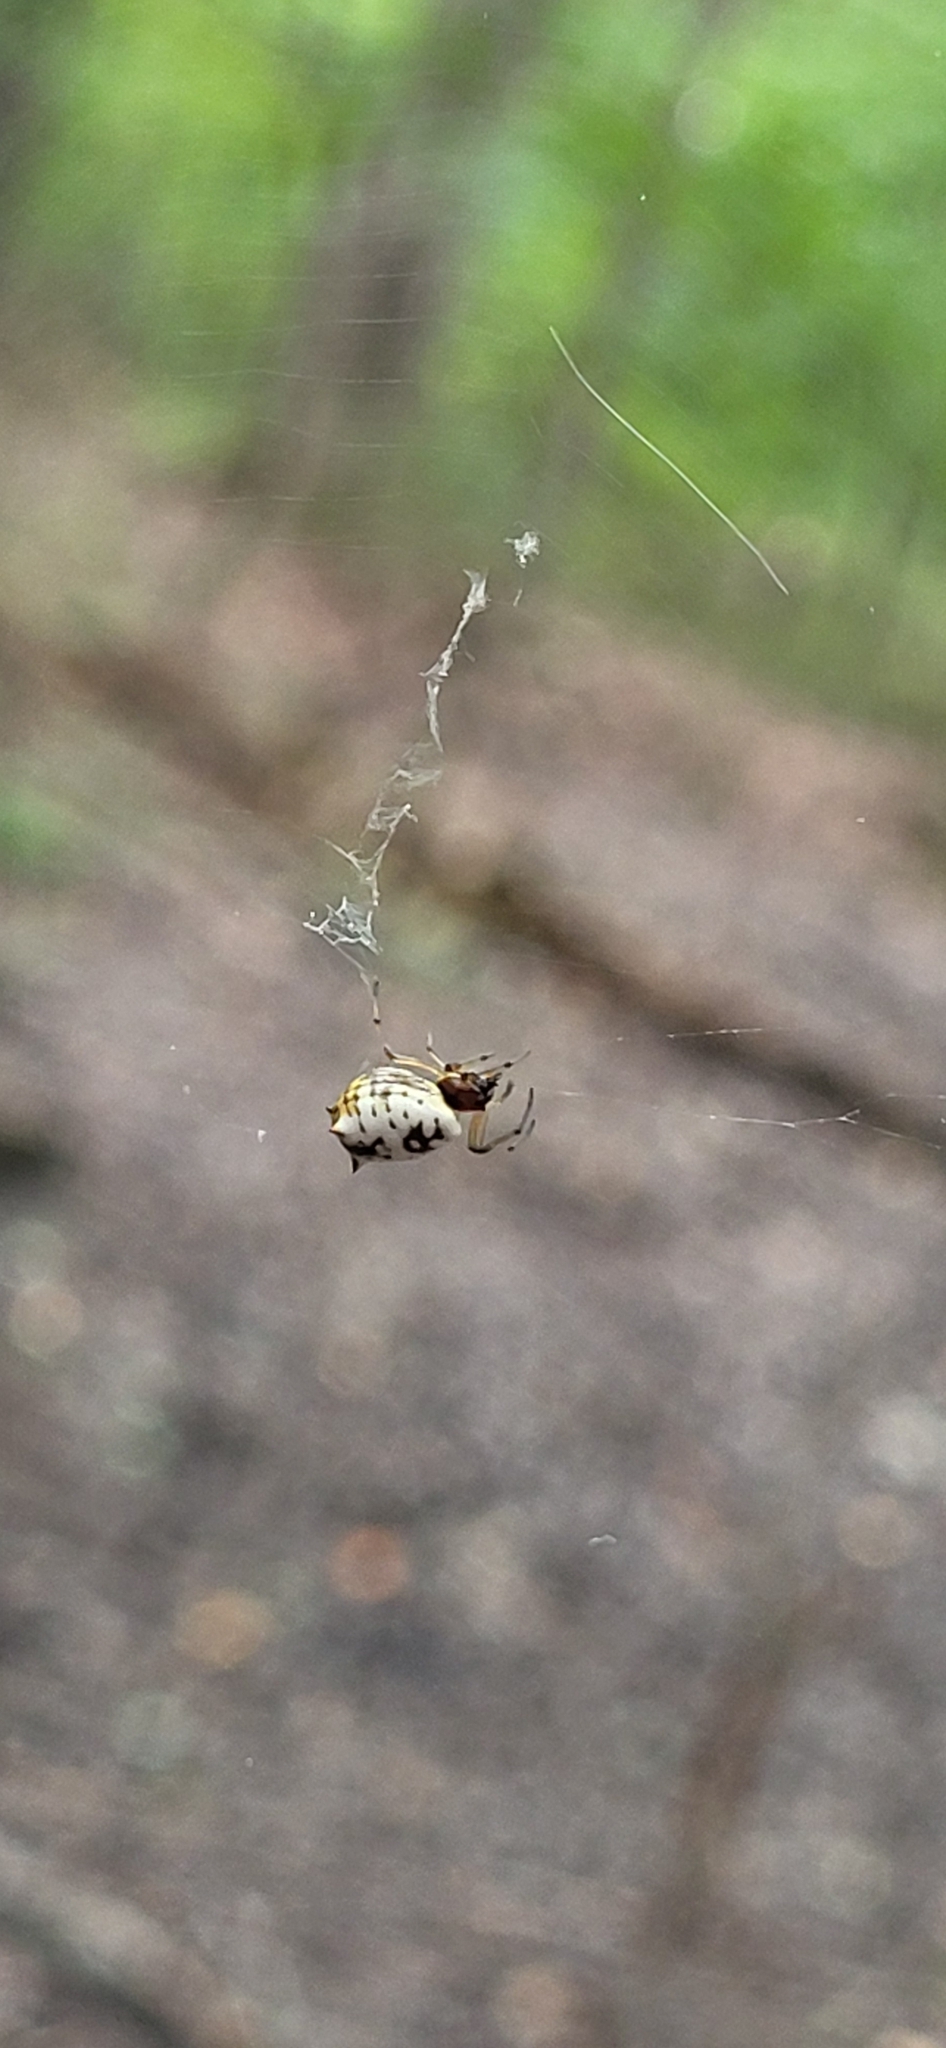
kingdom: Animalia
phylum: Arthropoda
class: Arachnida
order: Araneae
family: Araneidae
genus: Micrathena
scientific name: Micrathena mitrata
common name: Orb weavers
